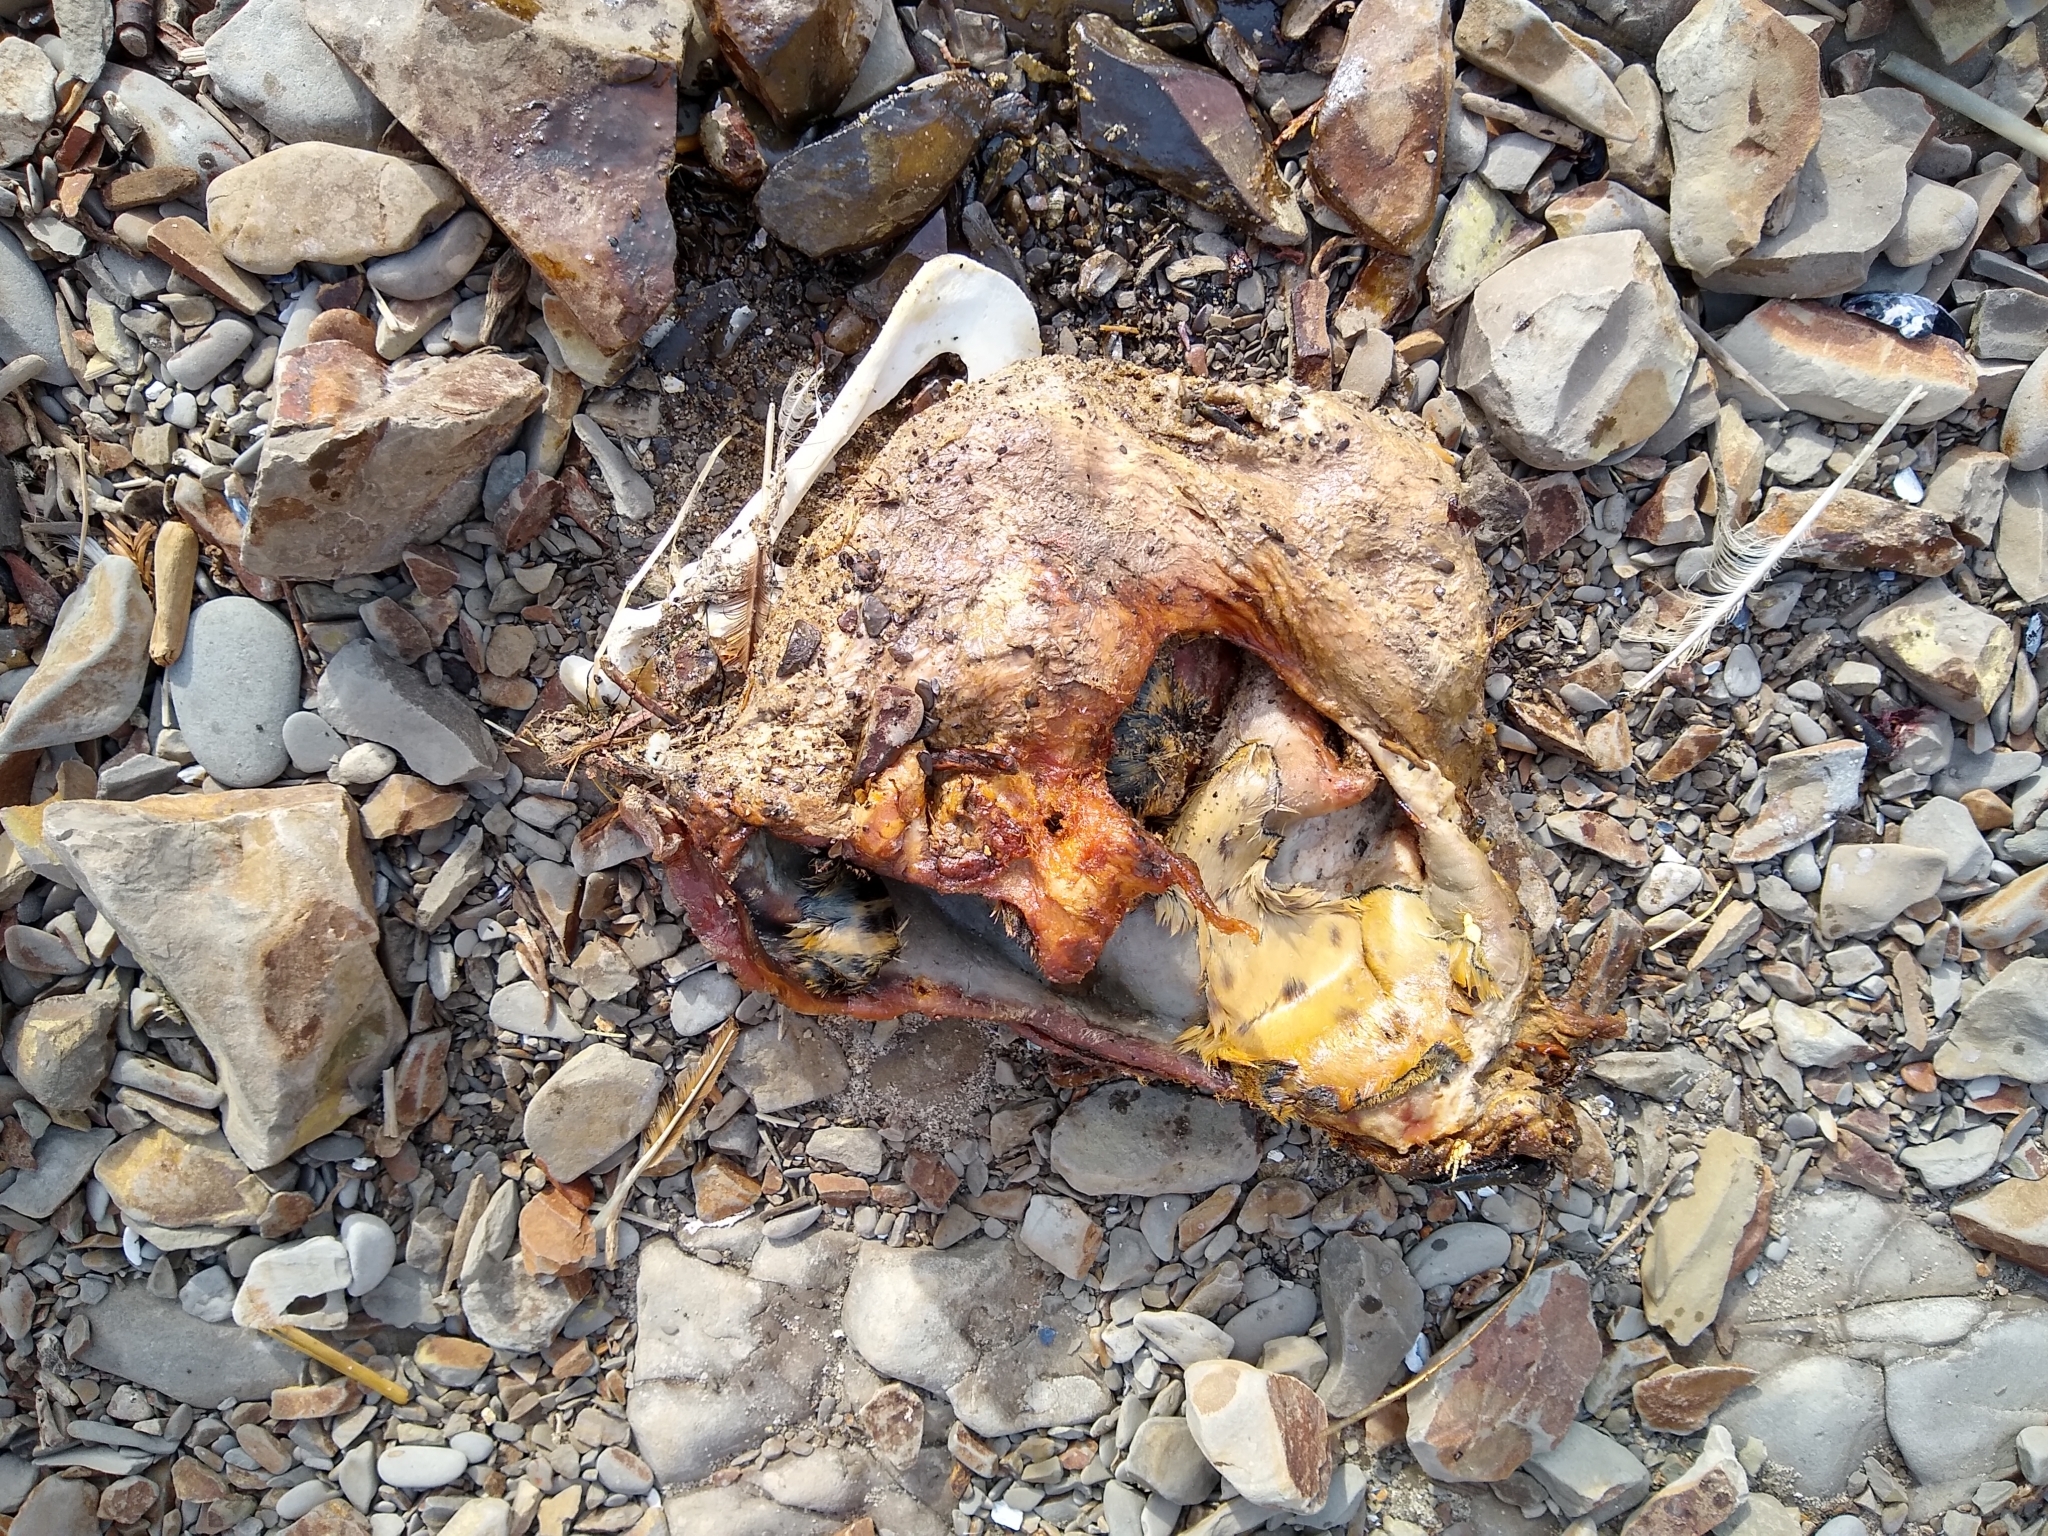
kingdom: Animalia
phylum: Chordata
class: Mammalia
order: Carnivora
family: Phocidae
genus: Phoca
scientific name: Phoca vitulina
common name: Harbor seal
